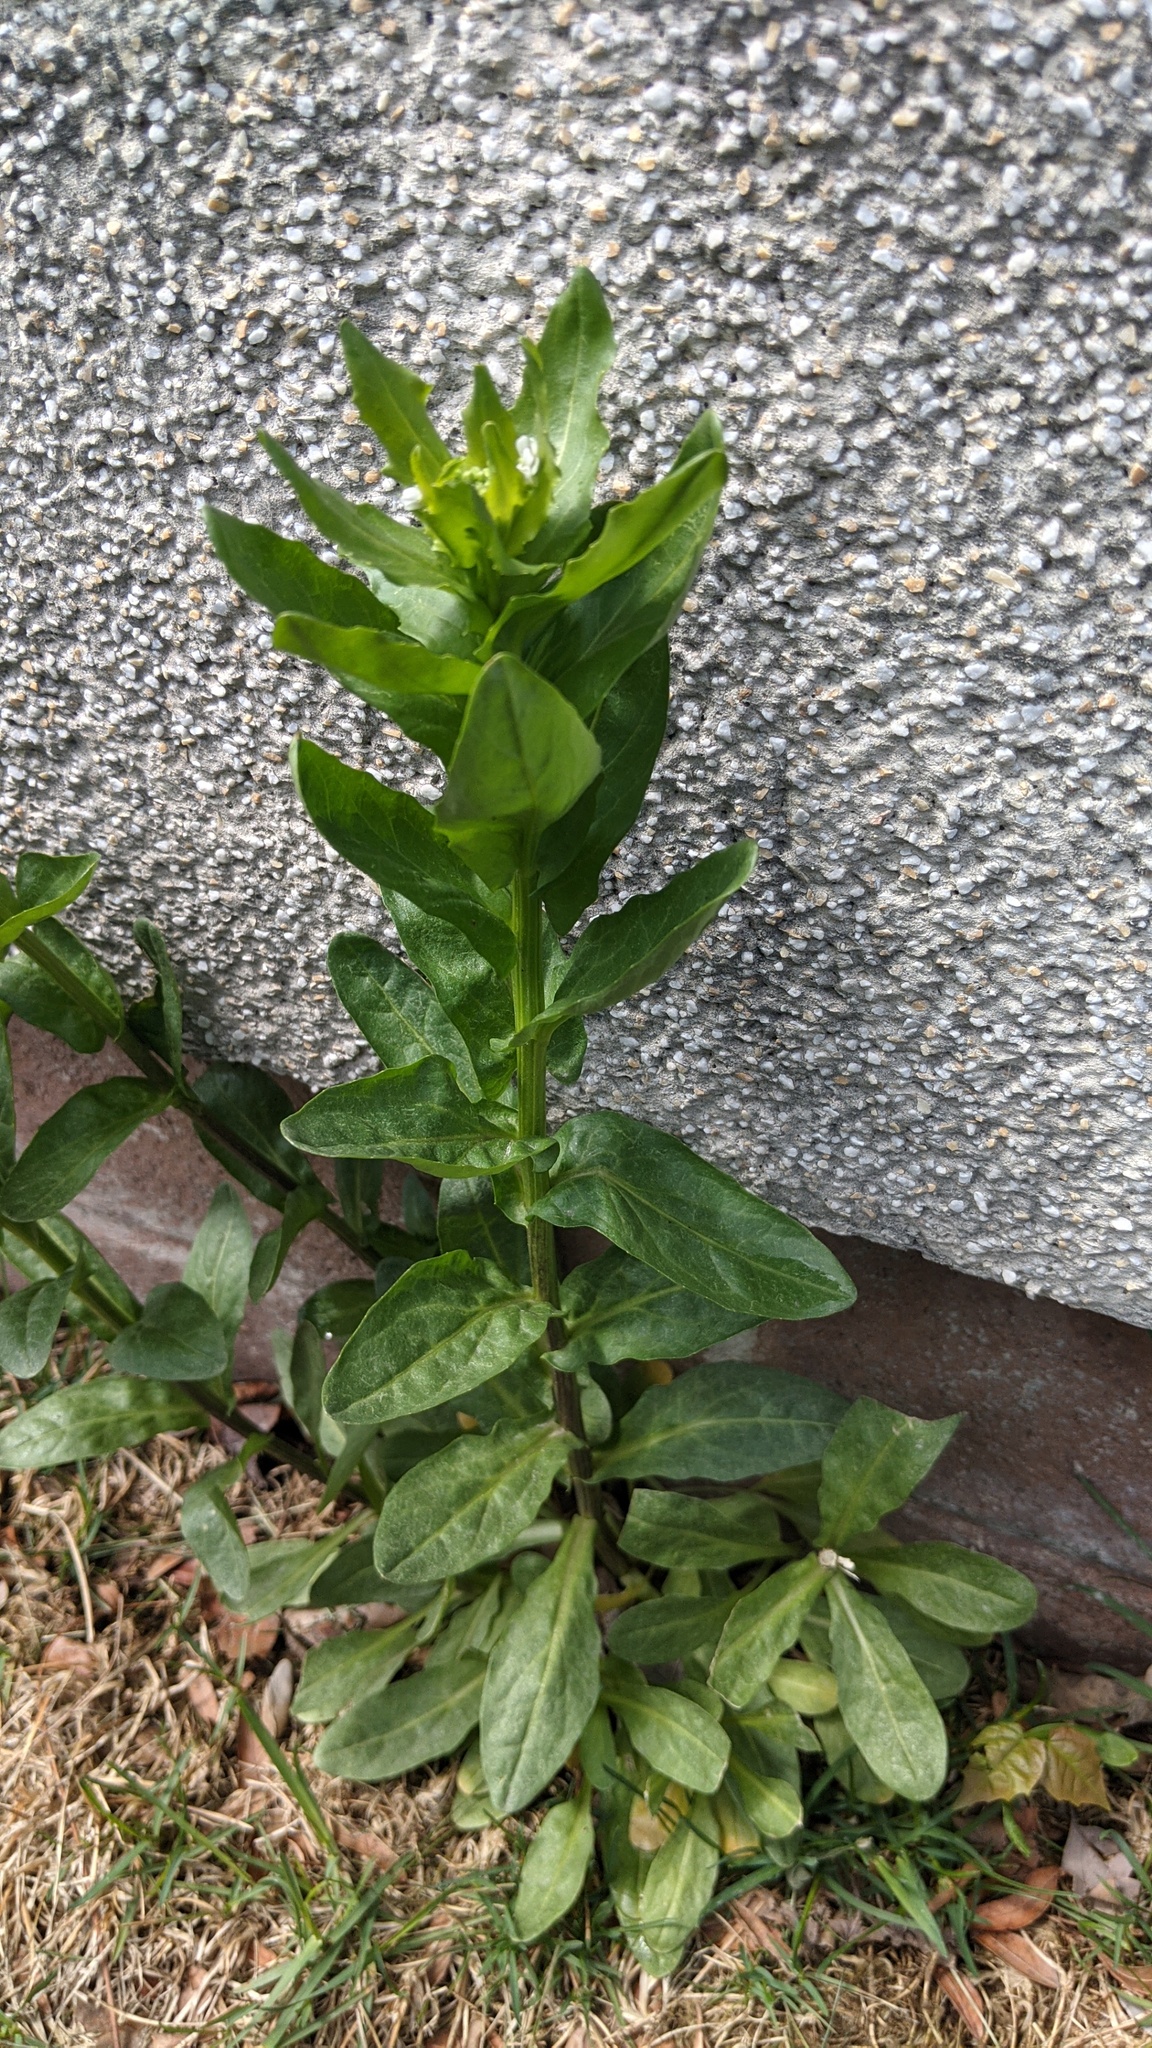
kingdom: Plantae
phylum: Tracheophyta
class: Magnoliopsida
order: Brassicales
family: Brassicaceae
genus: Thlaspi
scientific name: Thlaspi arvense
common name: Field pennycress
